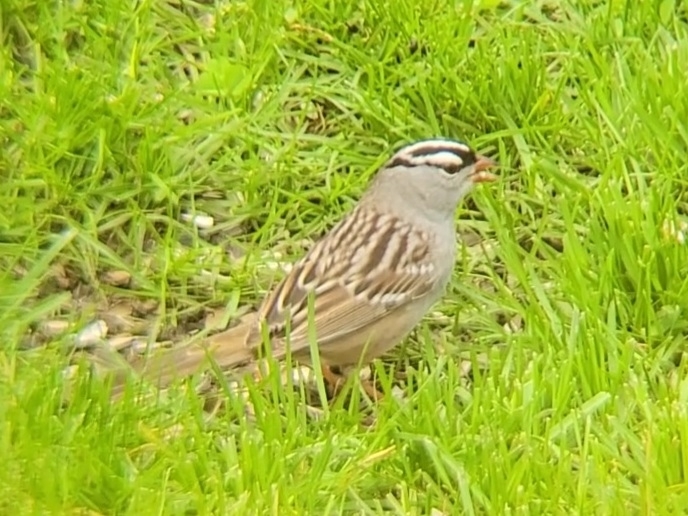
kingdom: Animalia
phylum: Chordata
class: Aves
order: Passeriformes
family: Passerellidae
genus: Zonotrichia
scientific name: Zonotrichia leucophrys
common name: White-crowned sparrow
